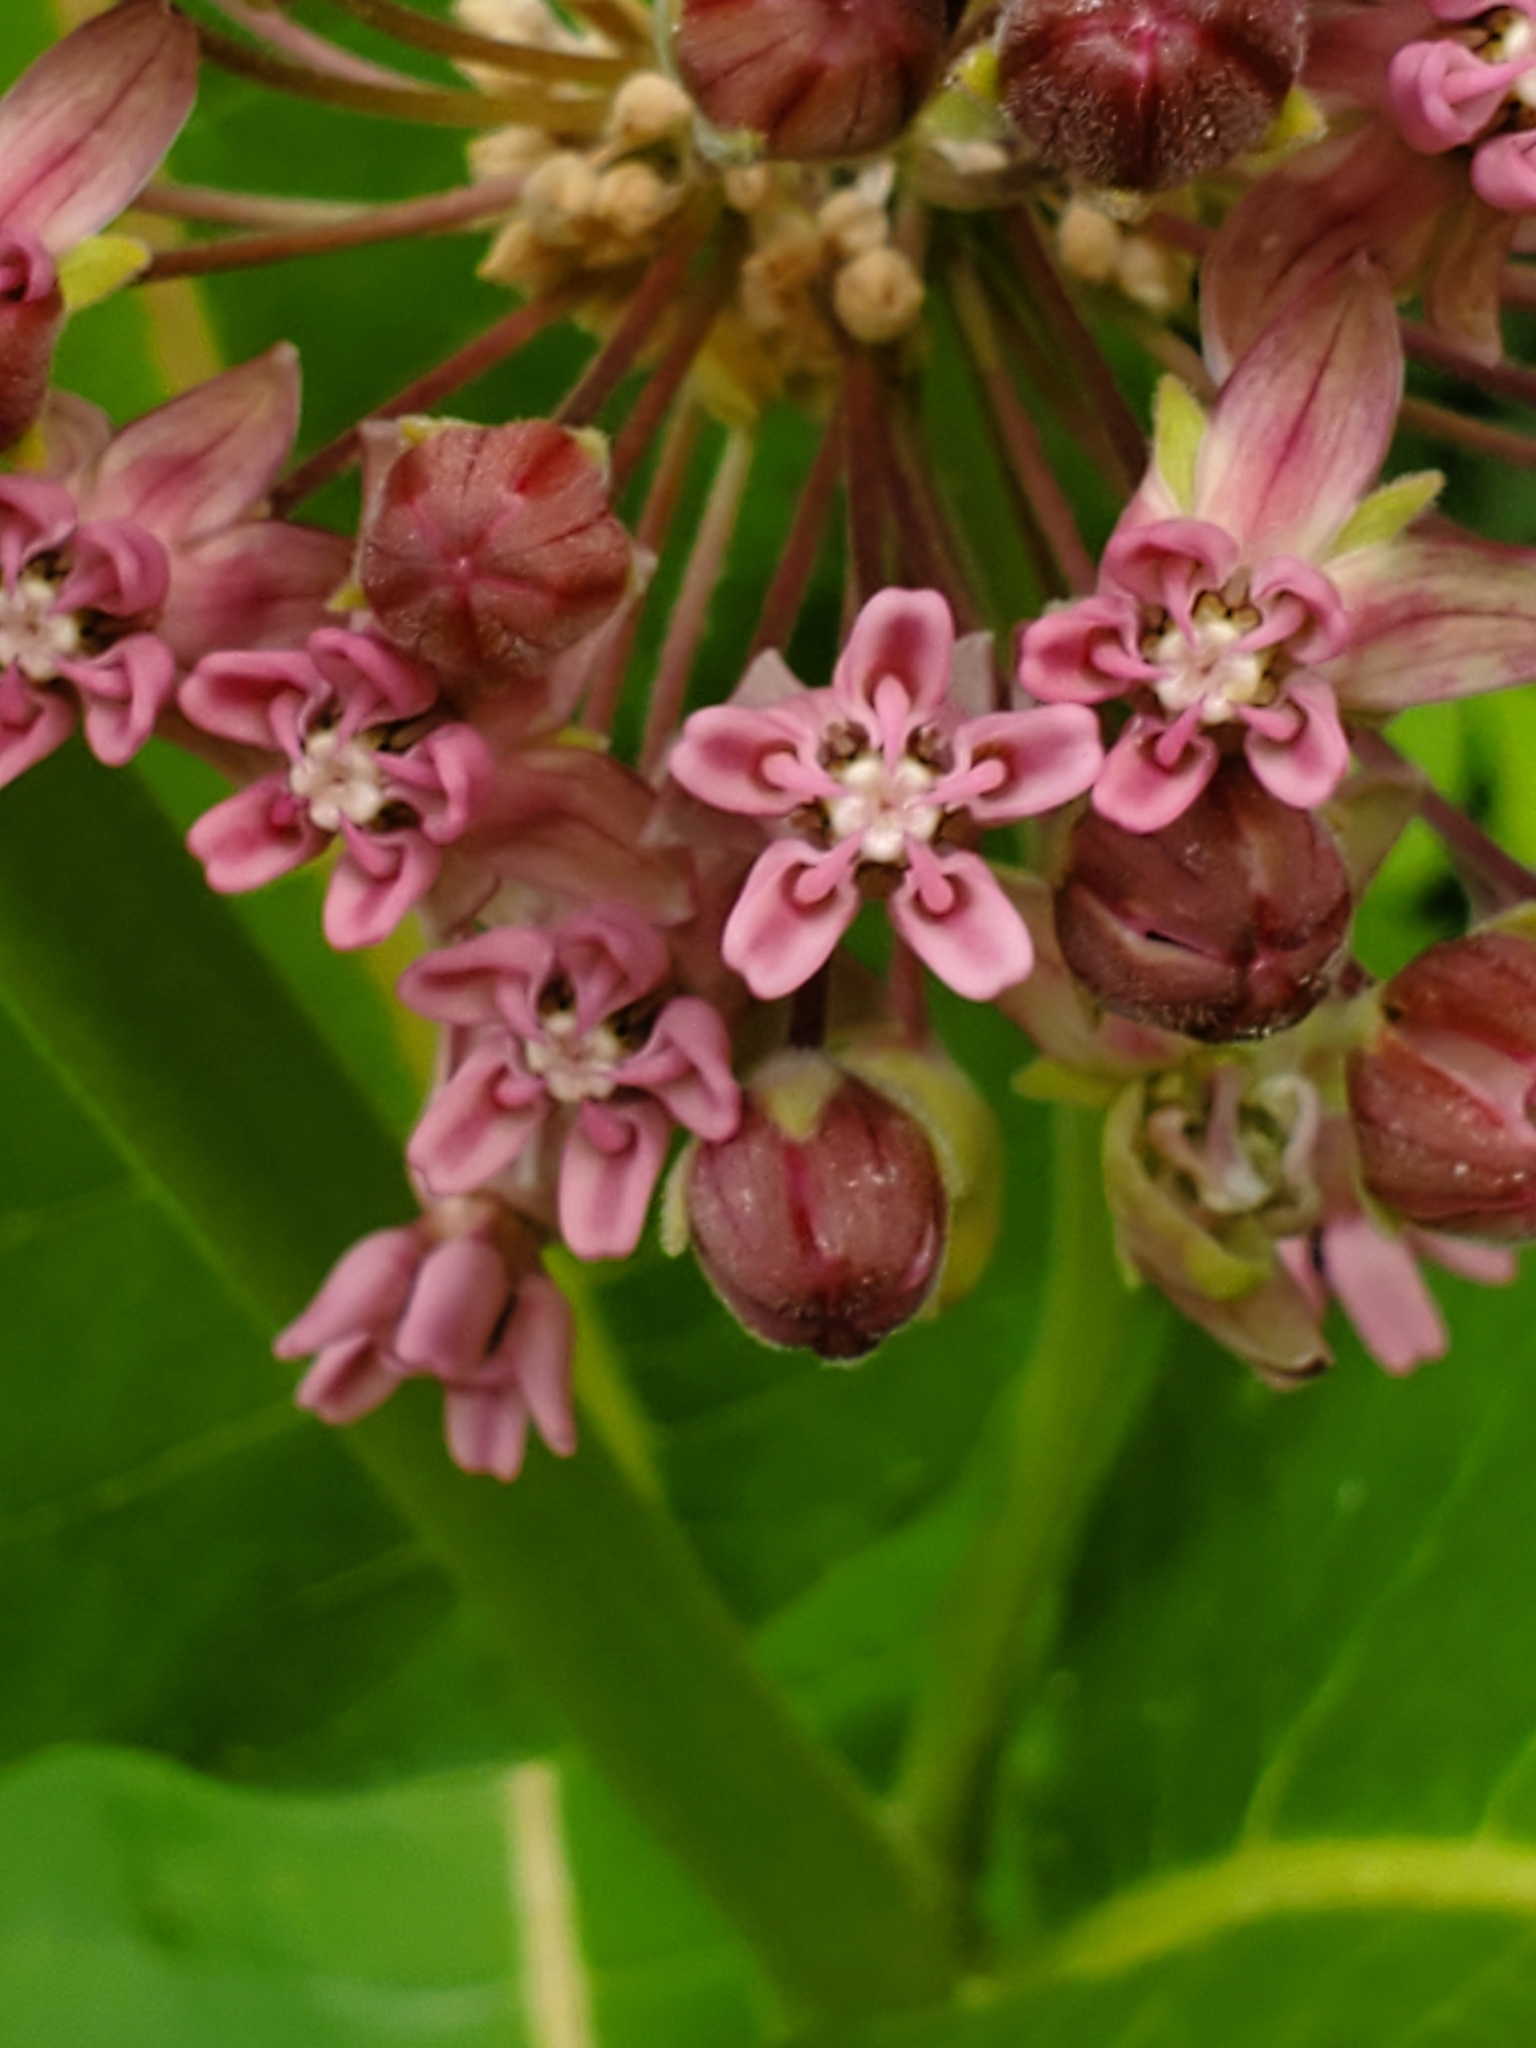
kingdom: Plantae
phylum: Tracheophyta
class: Magnoliopsida
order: Gentianales
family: Apocynaceae
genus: Asclepias
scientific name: Asclepias syriaca
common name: Common milkweed
